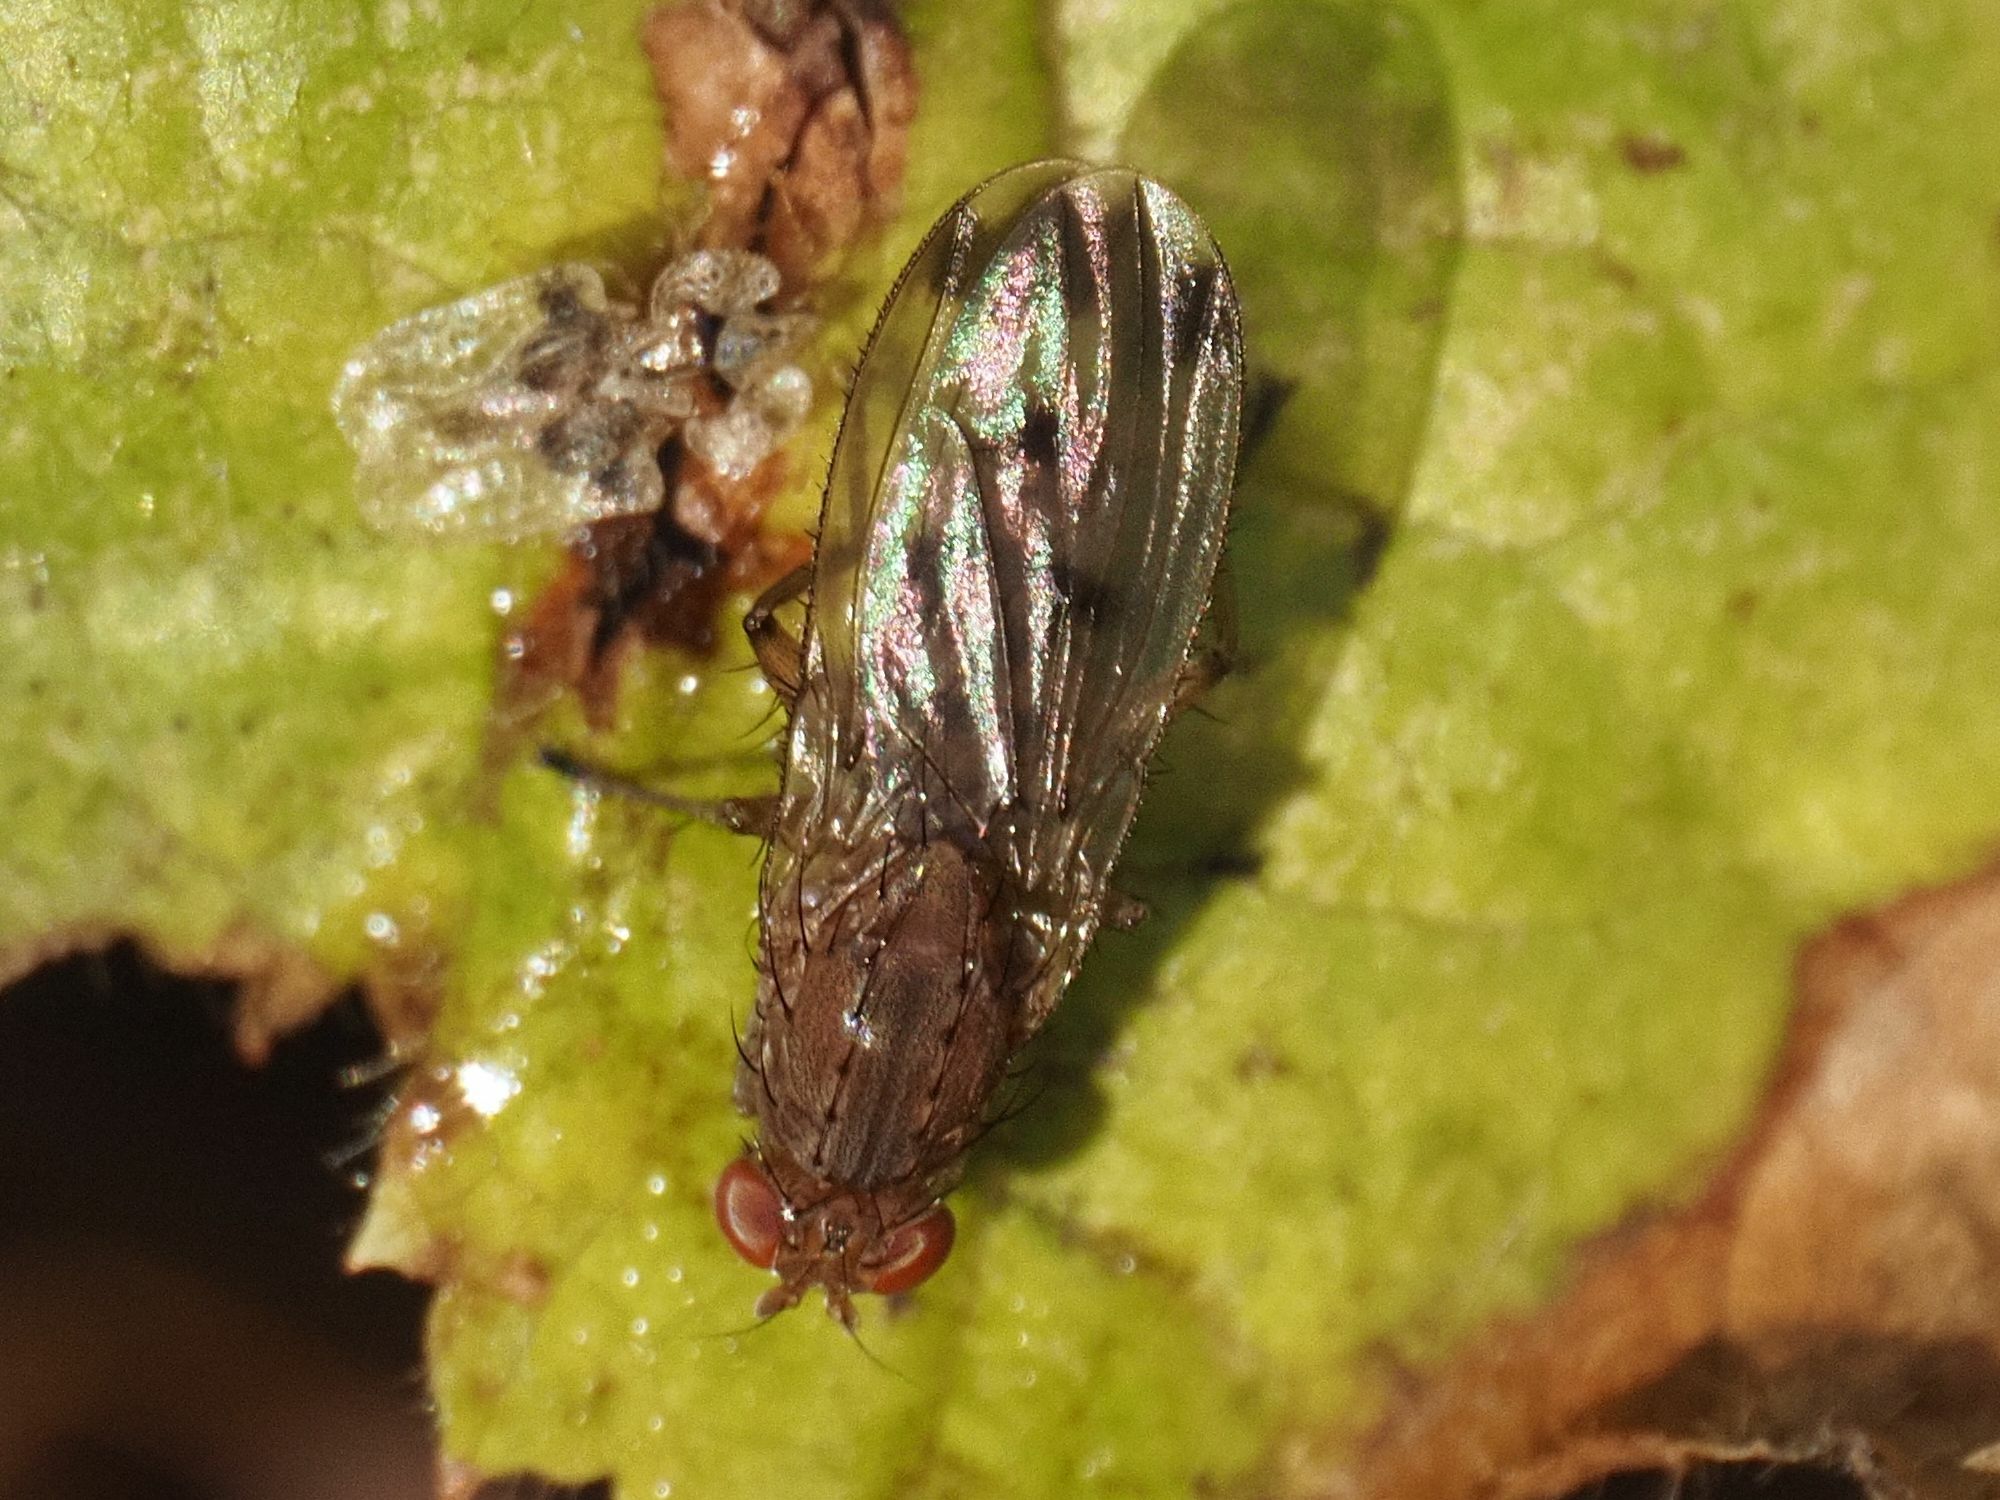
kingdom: Animalia
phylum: Arthropoda
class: Insecta
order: Diptera
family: Heleomyzidae
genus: Suillia
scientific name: Suillia variegata
